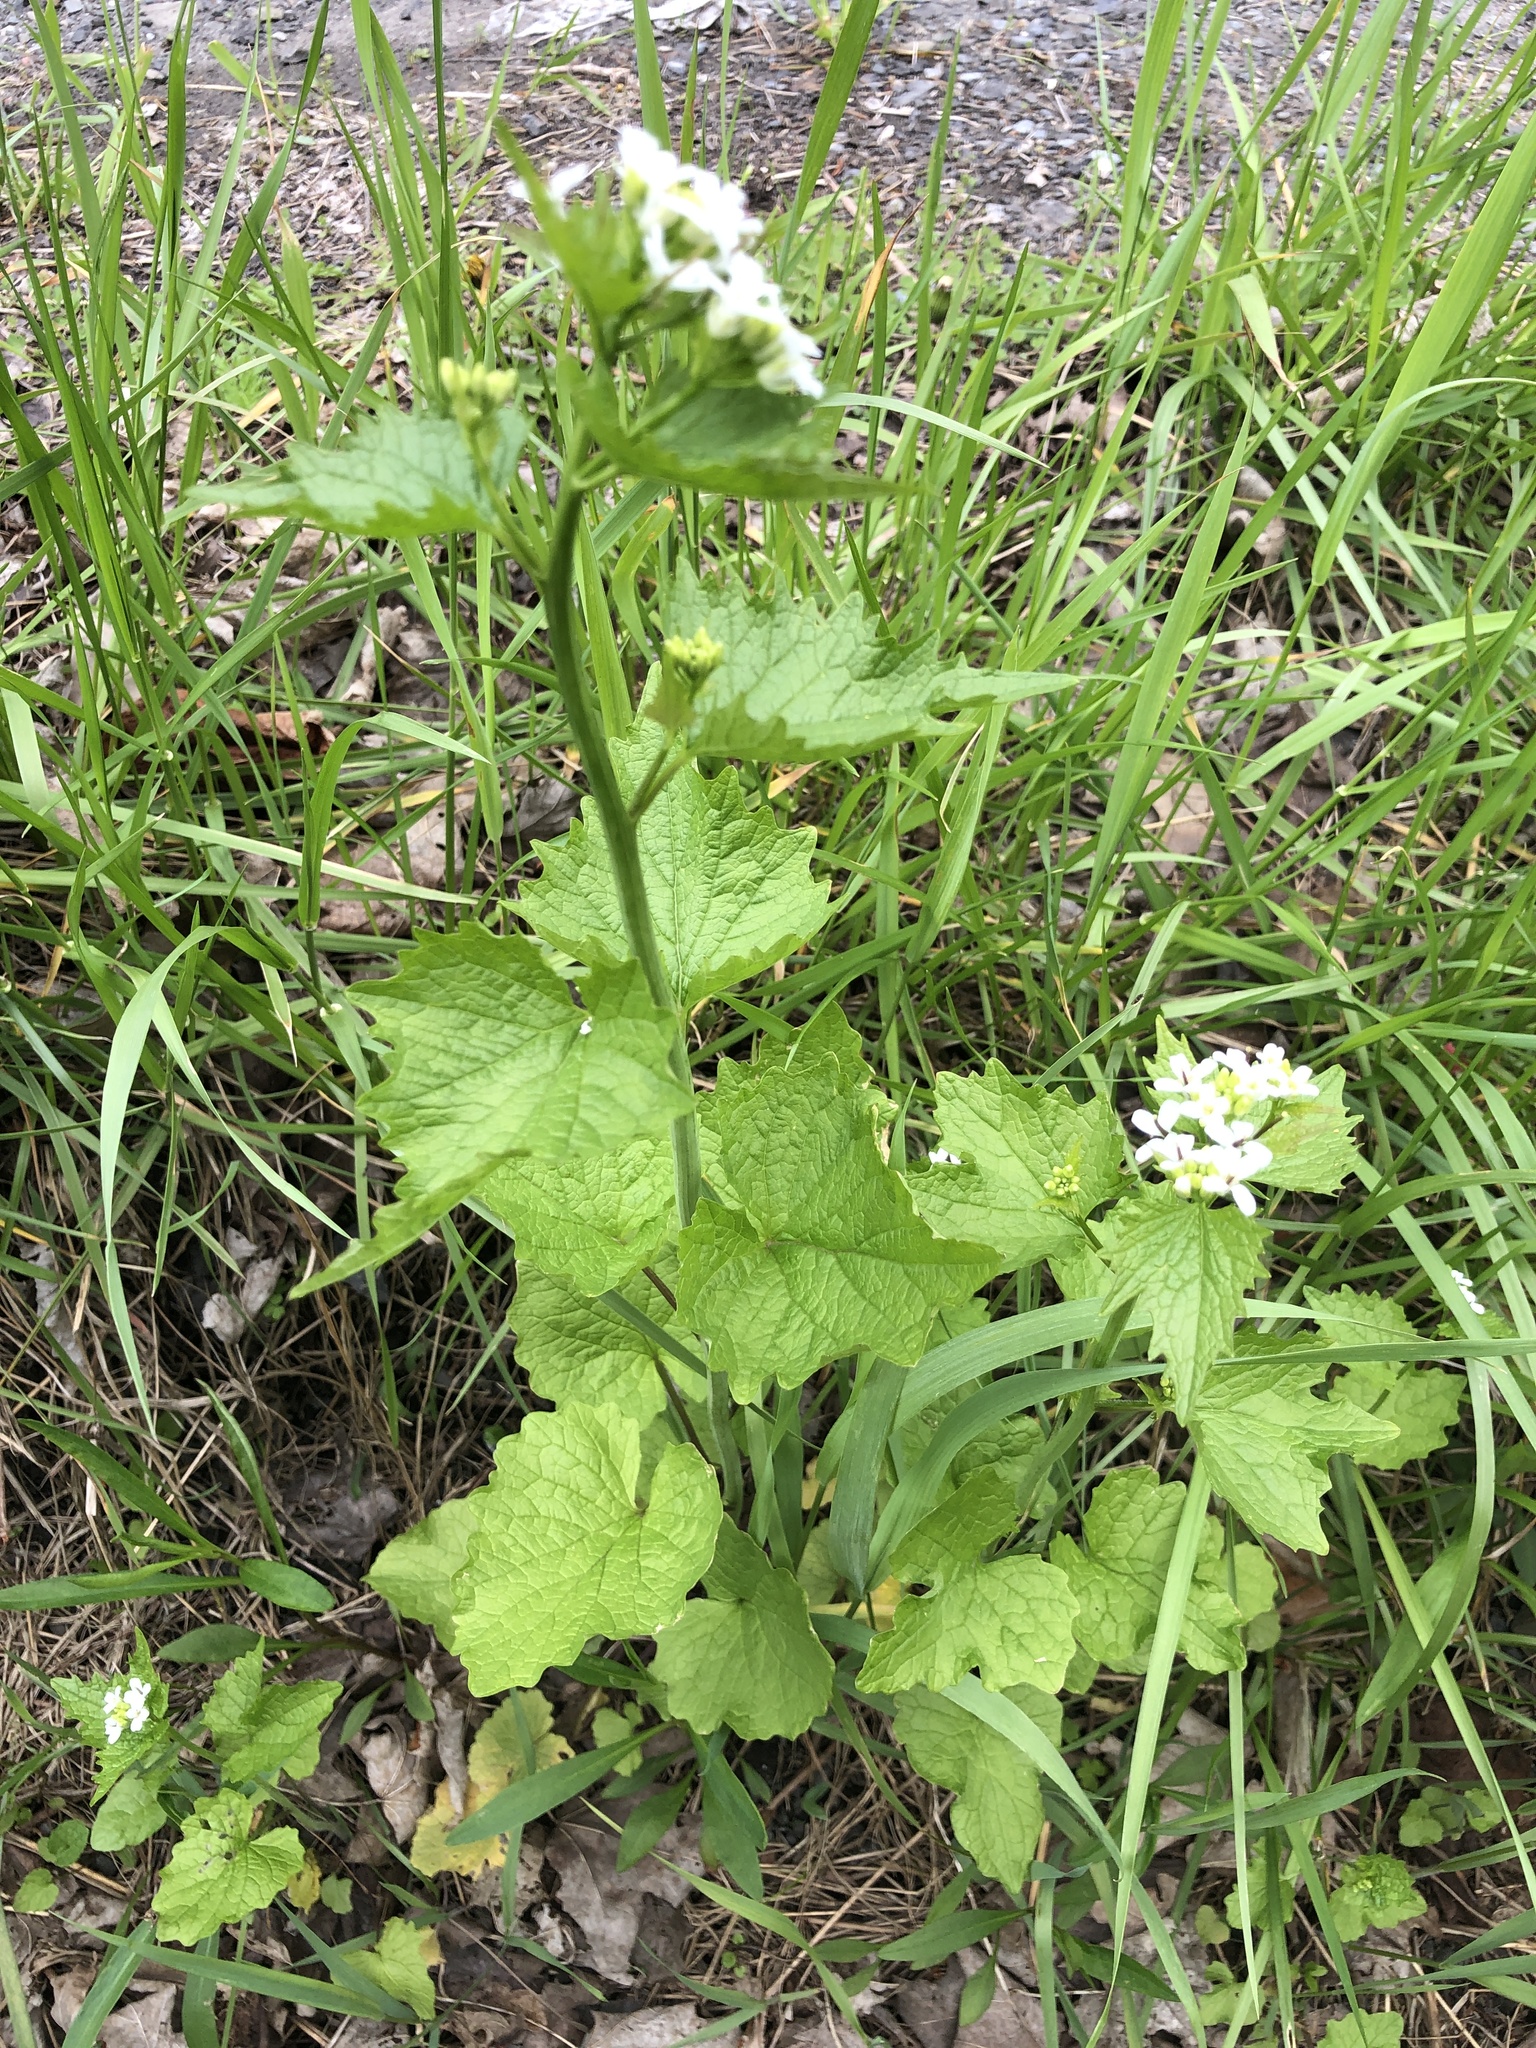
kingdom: Plantae
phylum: Tracheophyta
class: Magnoliopsida
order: Brassicales
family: Brassicaceae
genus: Alliaria
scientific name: Alliaria petiolata
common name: Garlic mustard
